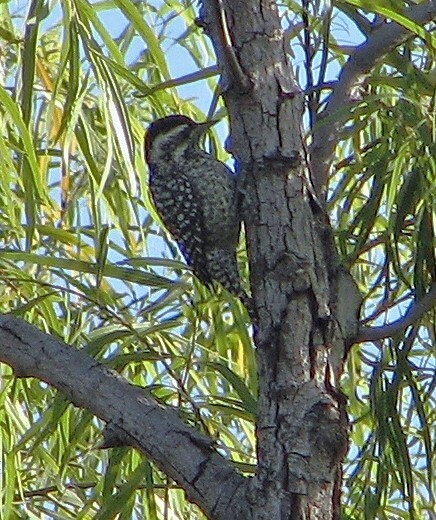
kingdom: Animalia
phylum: Chordata
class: Aves
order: Piciformes
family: Picidae
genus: Veniliornis
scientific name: Veniliornis mixtus
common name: Checkered woodpecker
